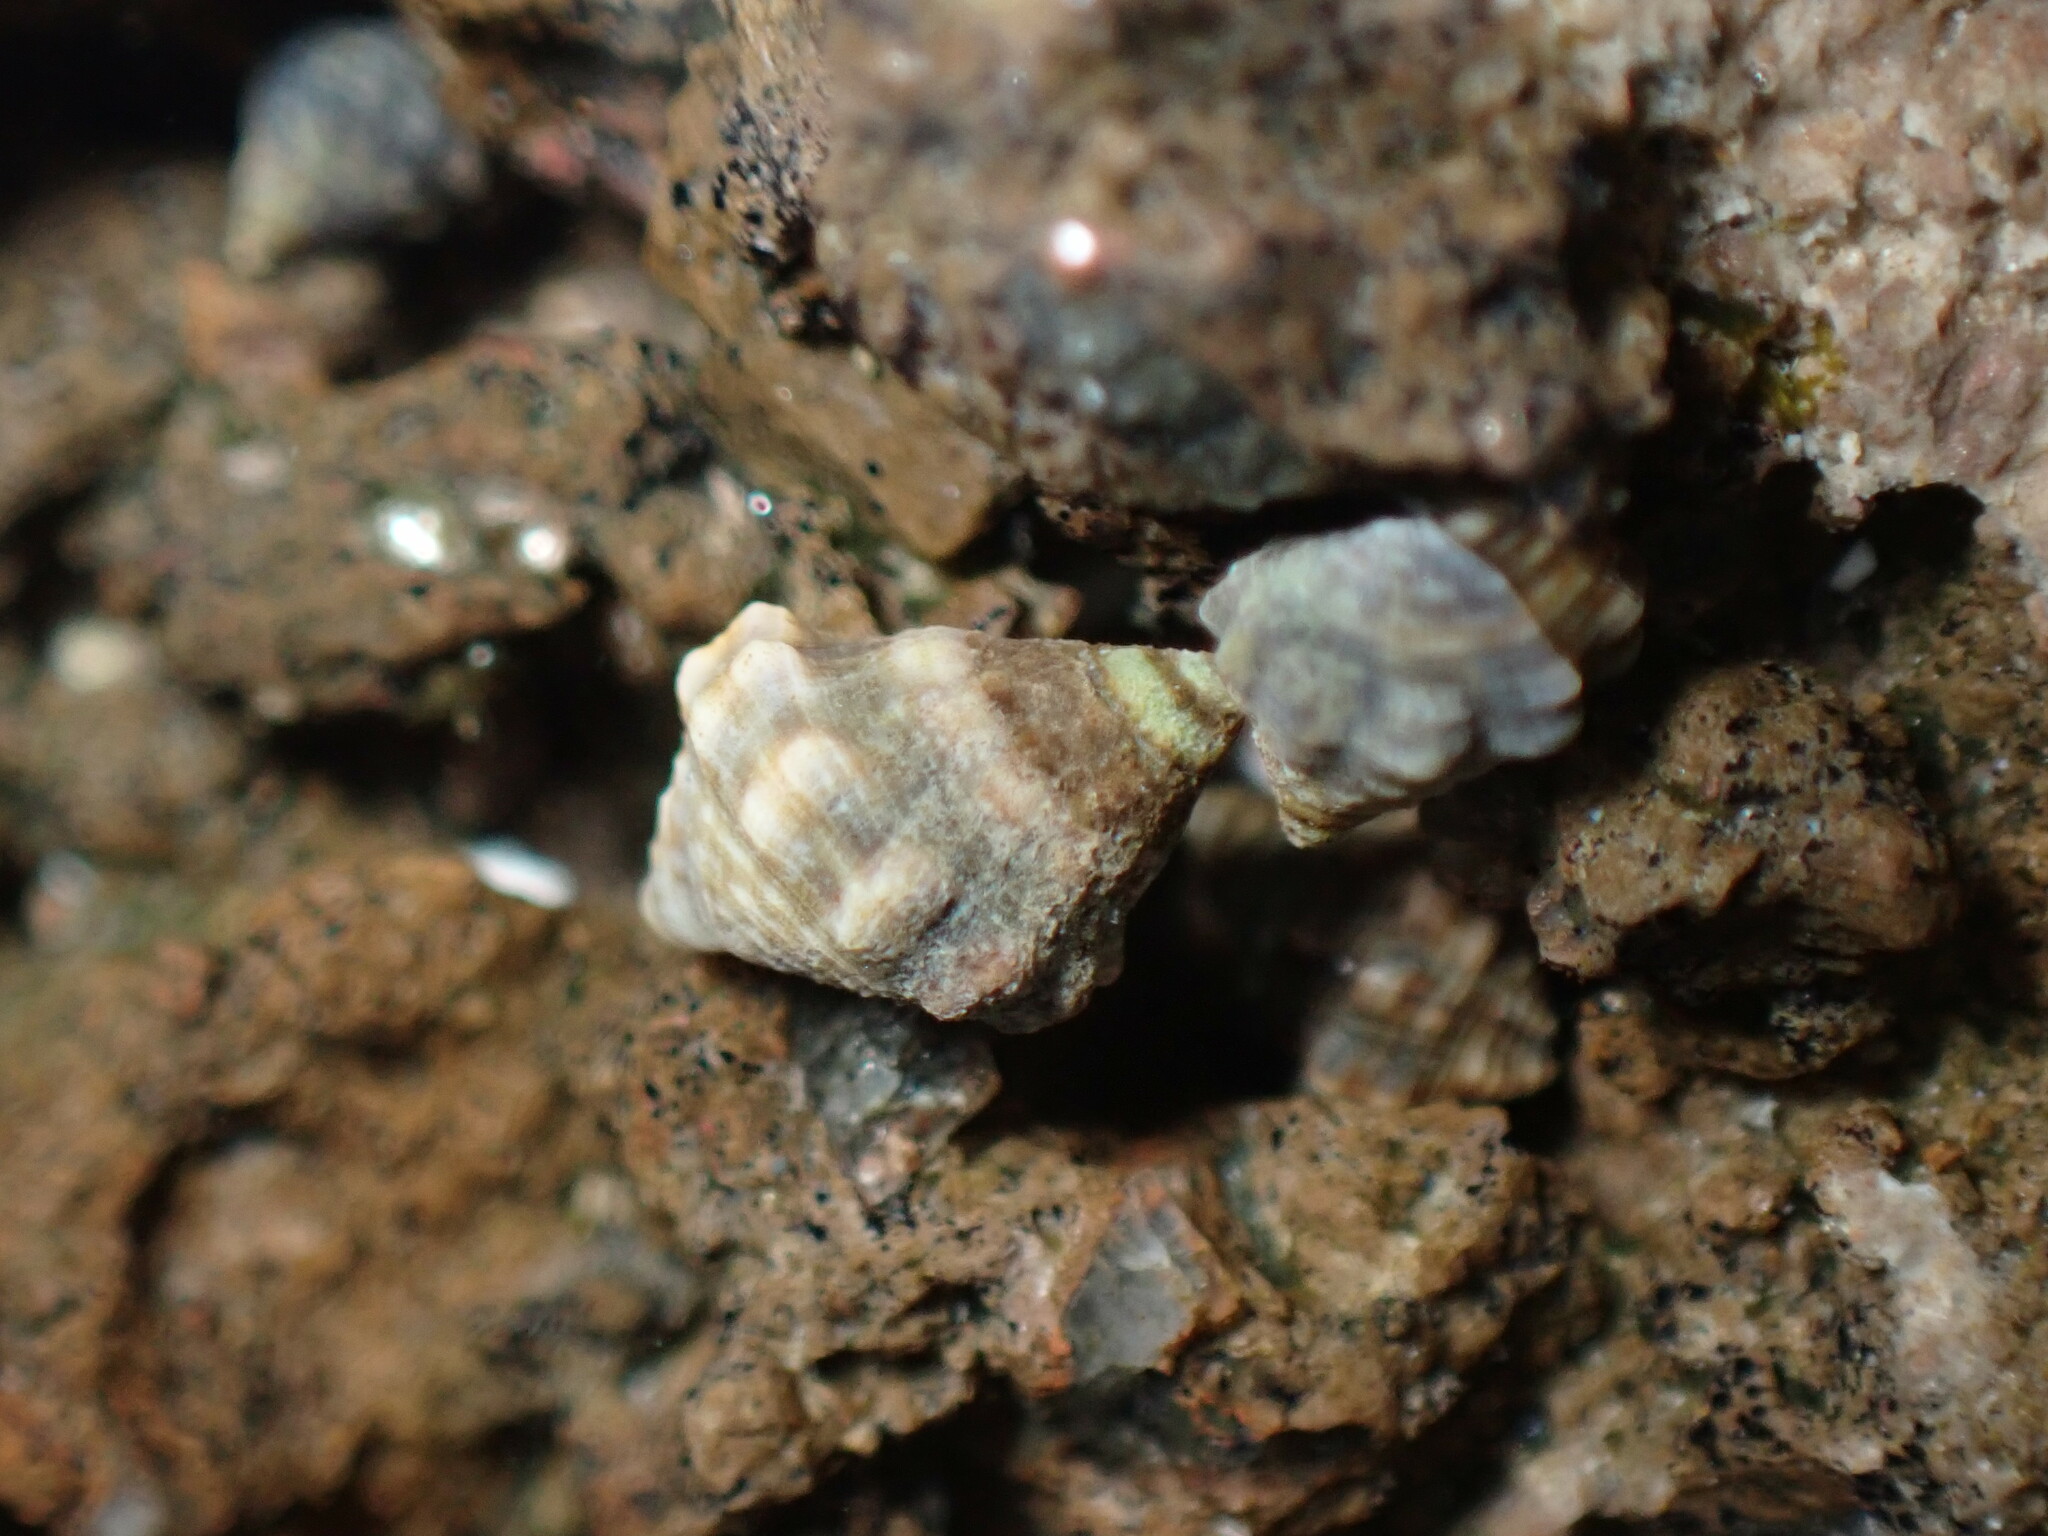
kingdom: Animalia
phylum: Mollusca
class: Gastropoda
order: Neogastropoda
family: Muricidae
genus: Stramonita
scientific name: Stramonita haemastoma
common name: Florida dog winkle
